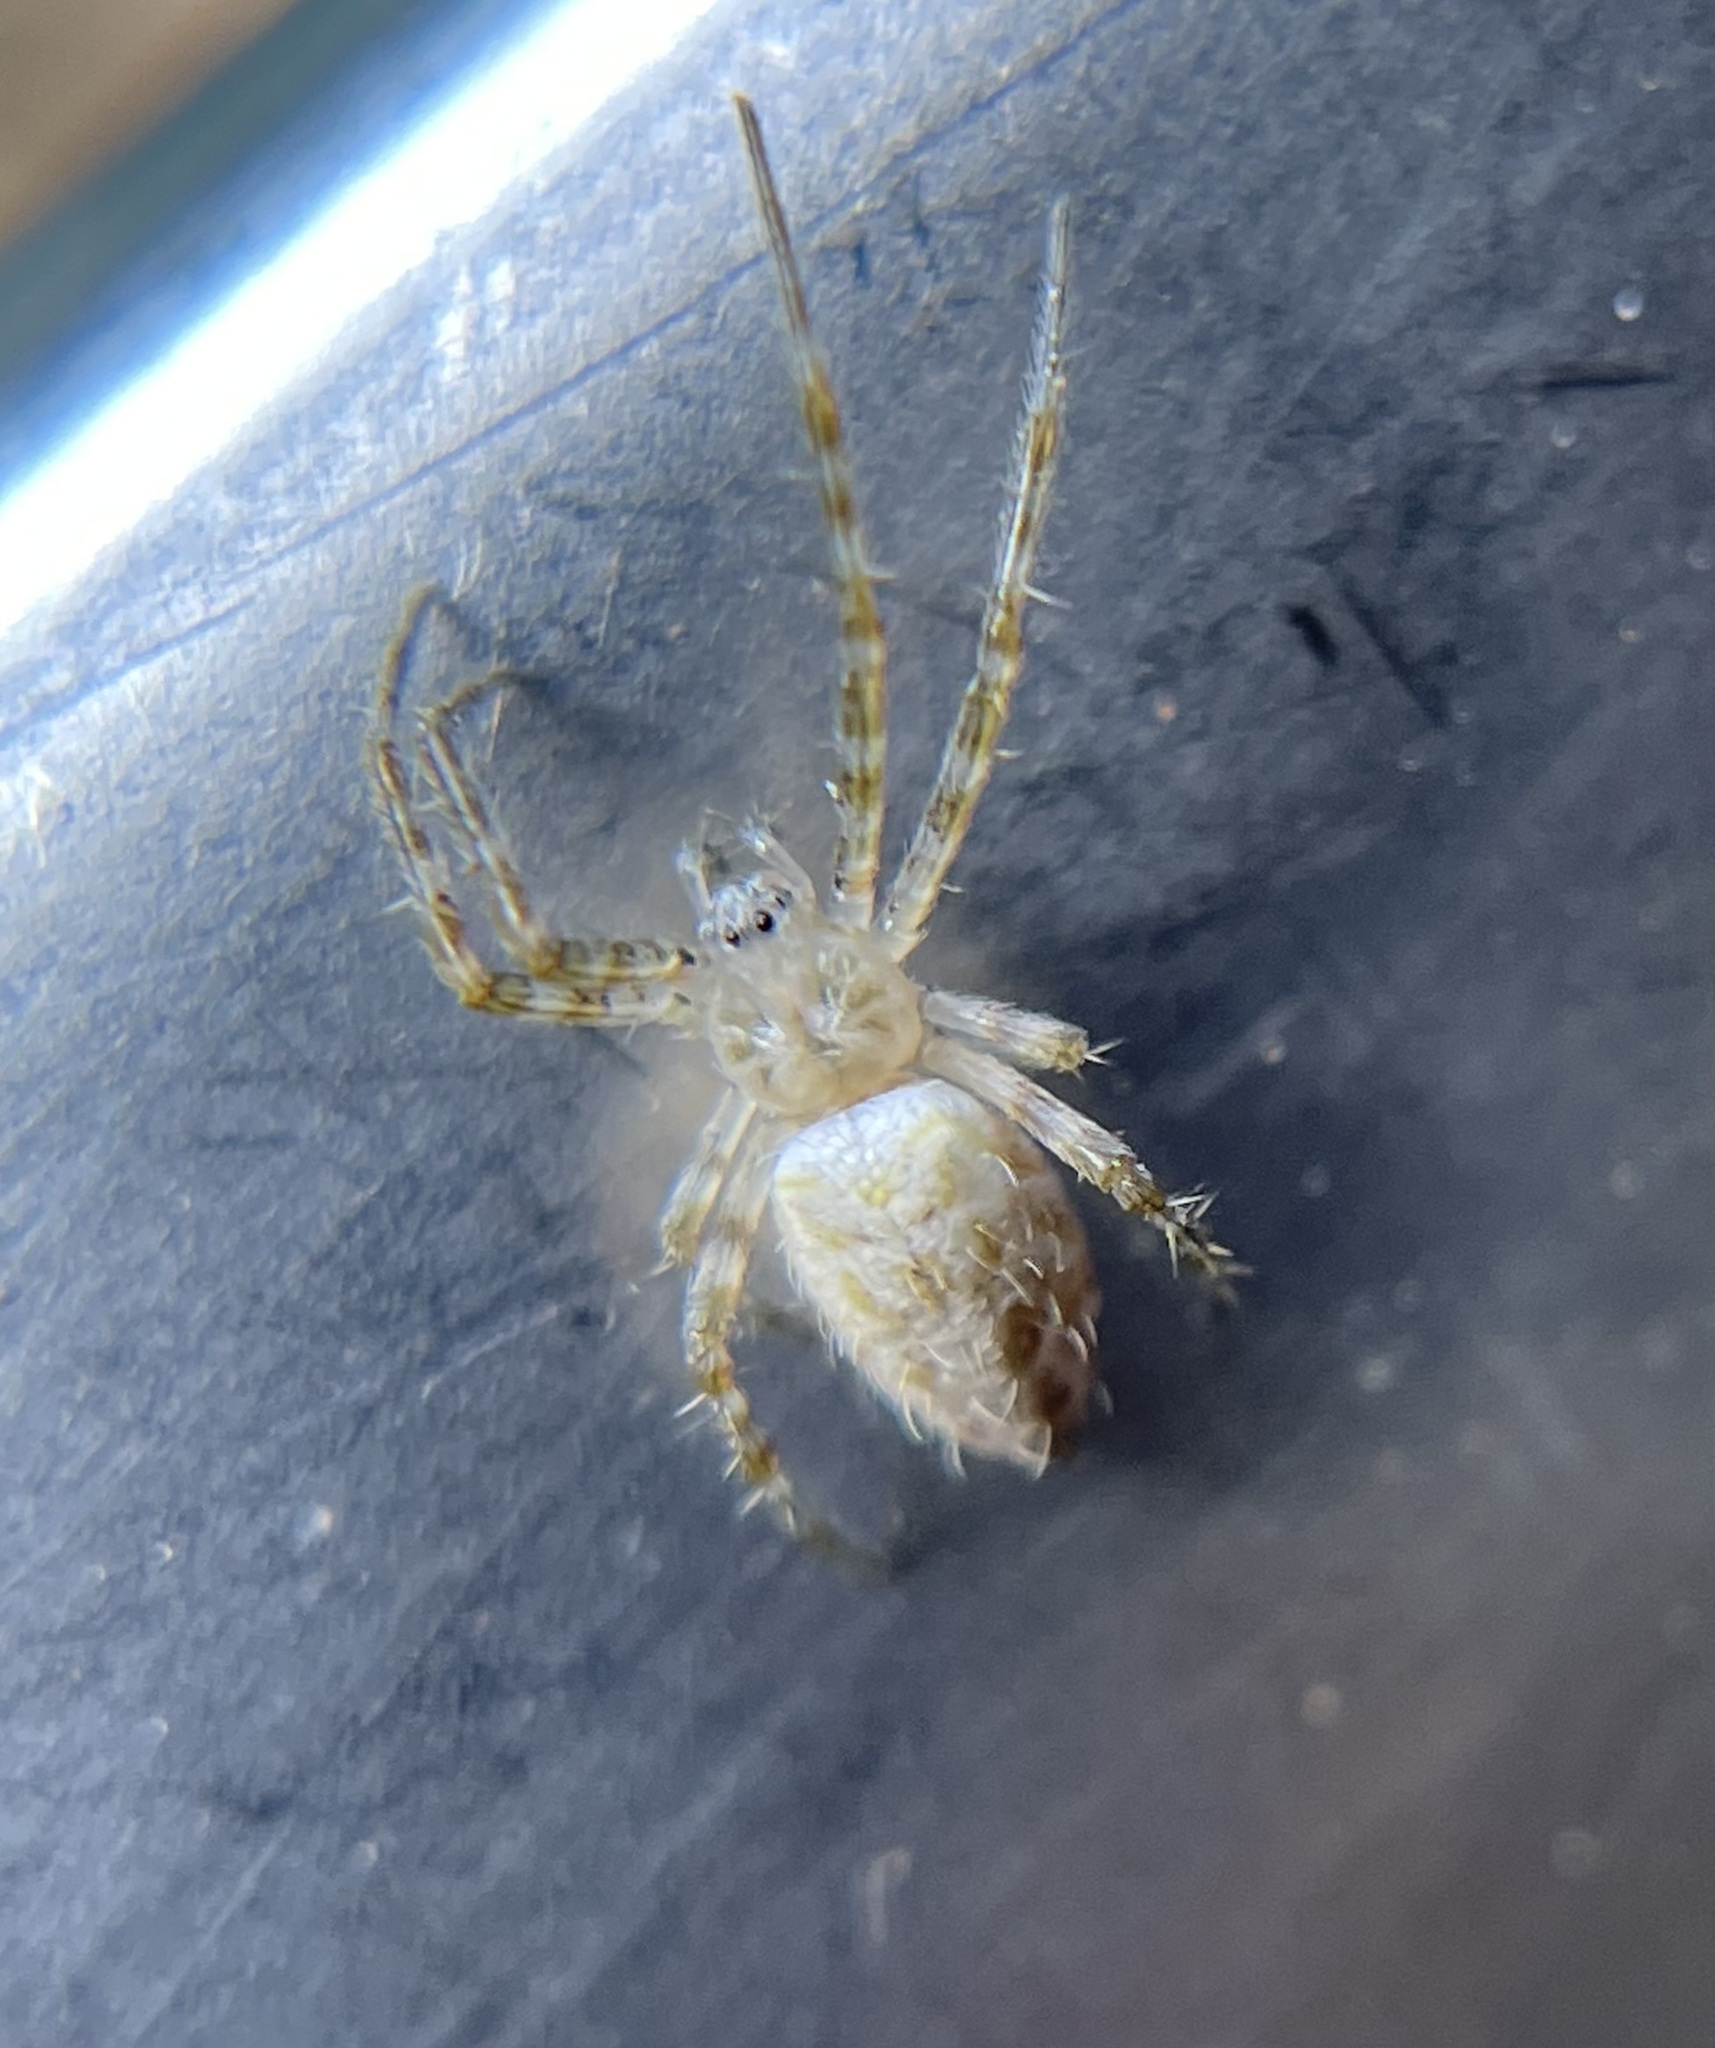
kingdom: Animalia
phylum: Arthropoda
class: Arachnida
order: Araneae
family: Araneidae
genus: Argiope
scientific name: Argiope aurantia
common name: Orb weavers
